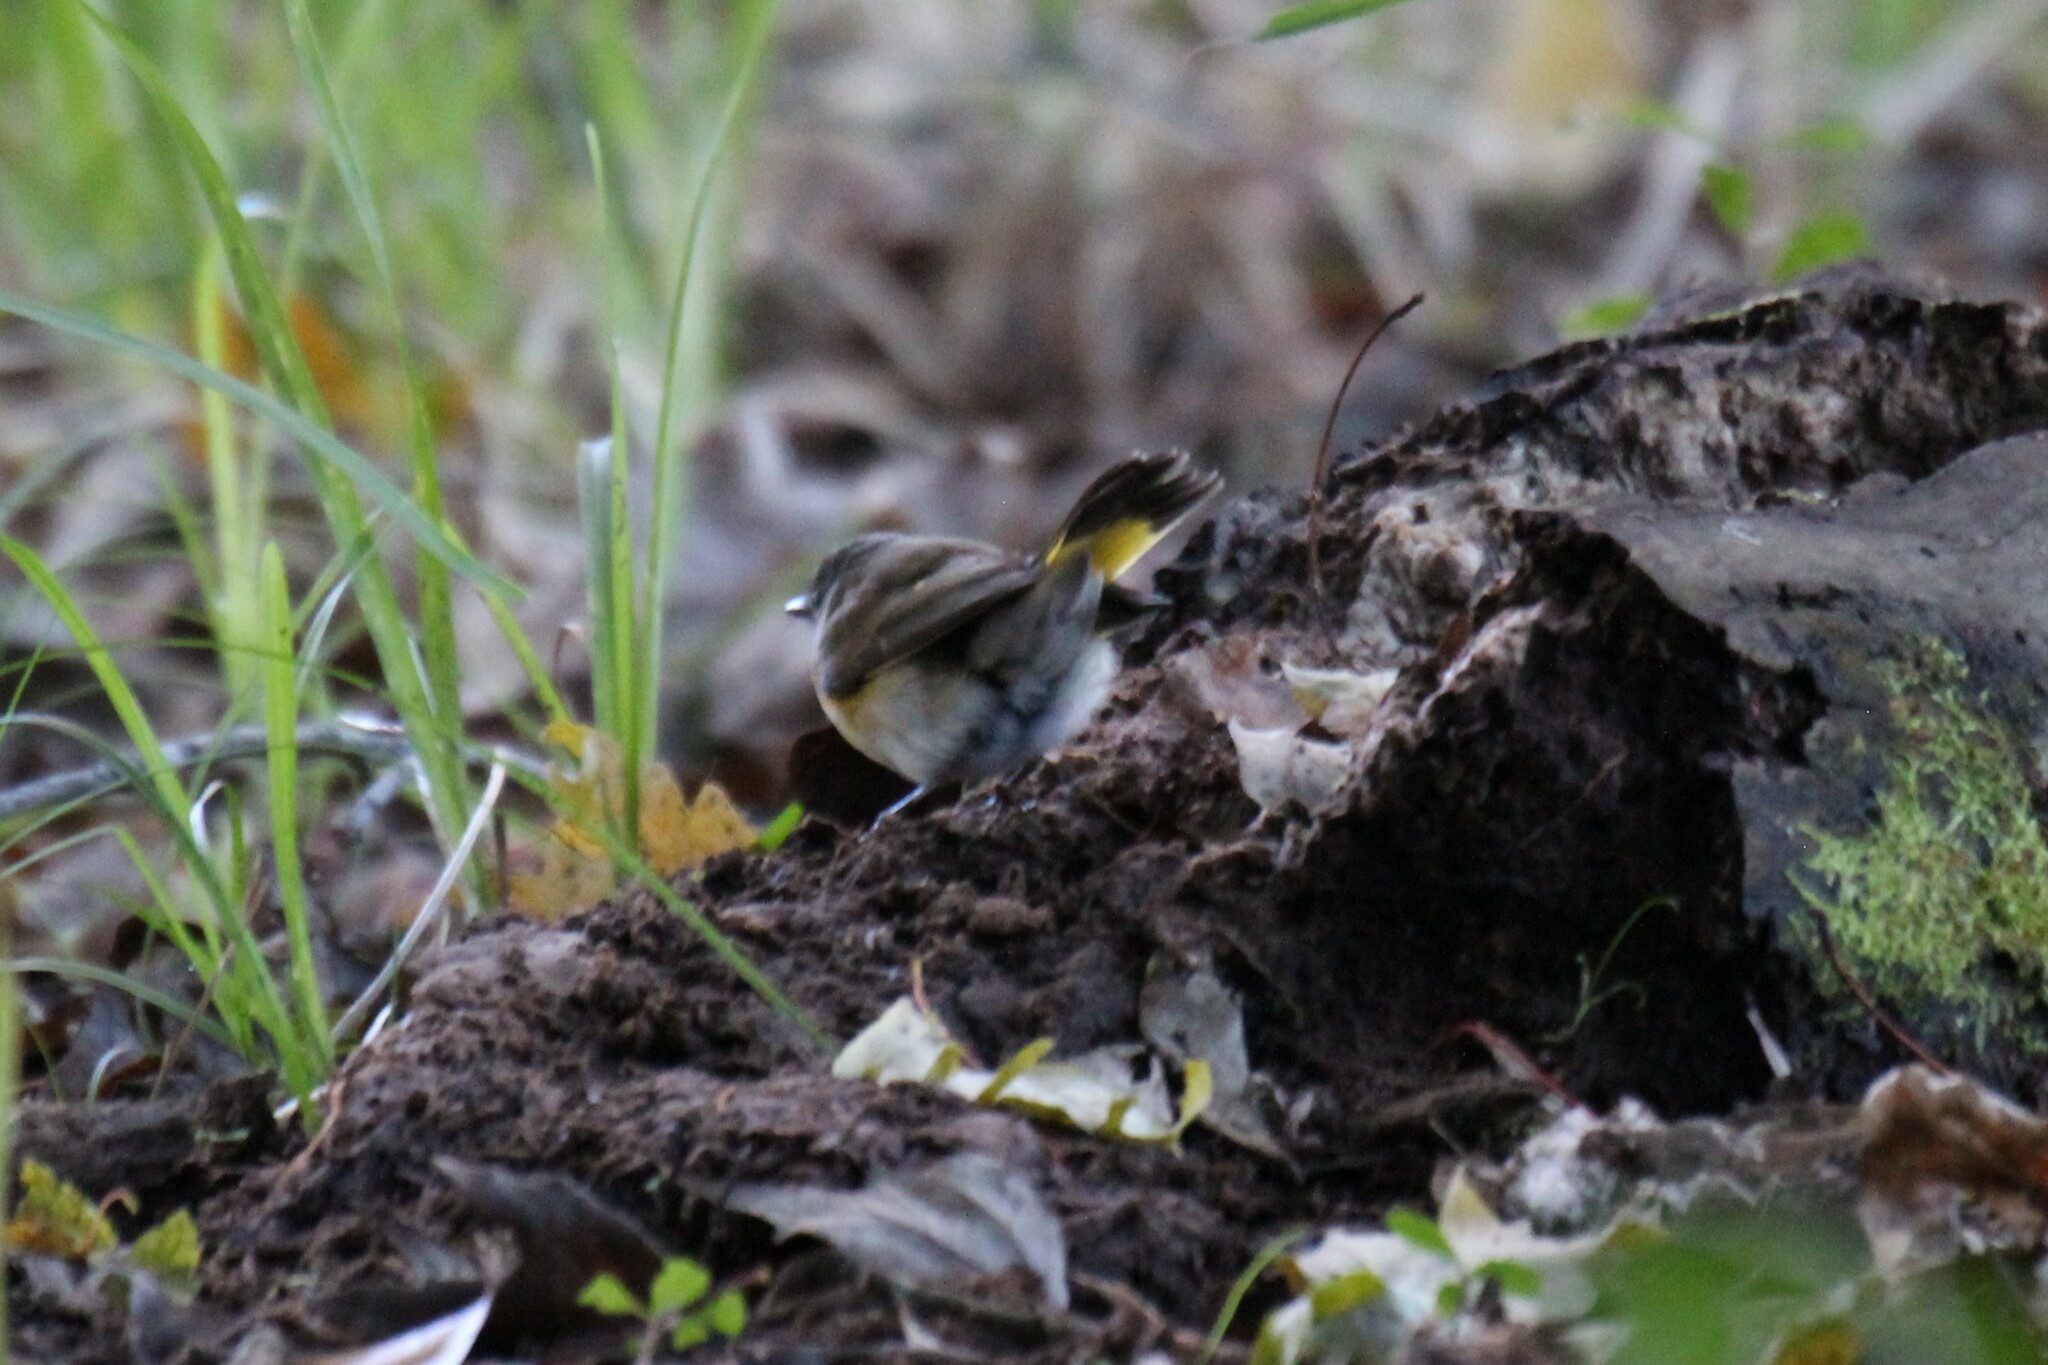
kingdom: Animalia
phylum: Chordata
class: Aves
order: Passeriformes
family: Parulidae
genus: Setophaga
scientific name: Setophaga ruticilla
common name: American redstart
